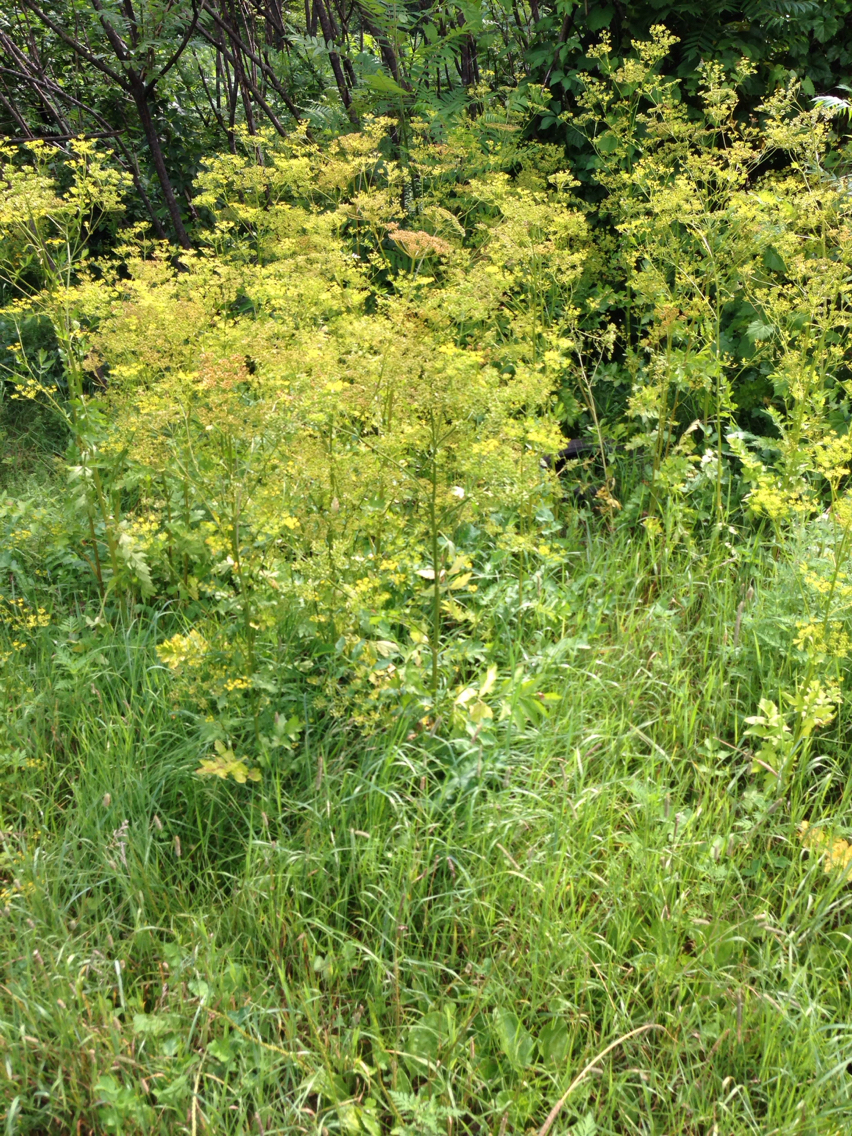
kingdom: Plantae
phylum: Tracheophyta
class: Magnoliopsida
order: Apiales
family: Apiaceae
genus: Pastinaca
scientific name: Pastinaca sativa
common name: Wild parsnip
